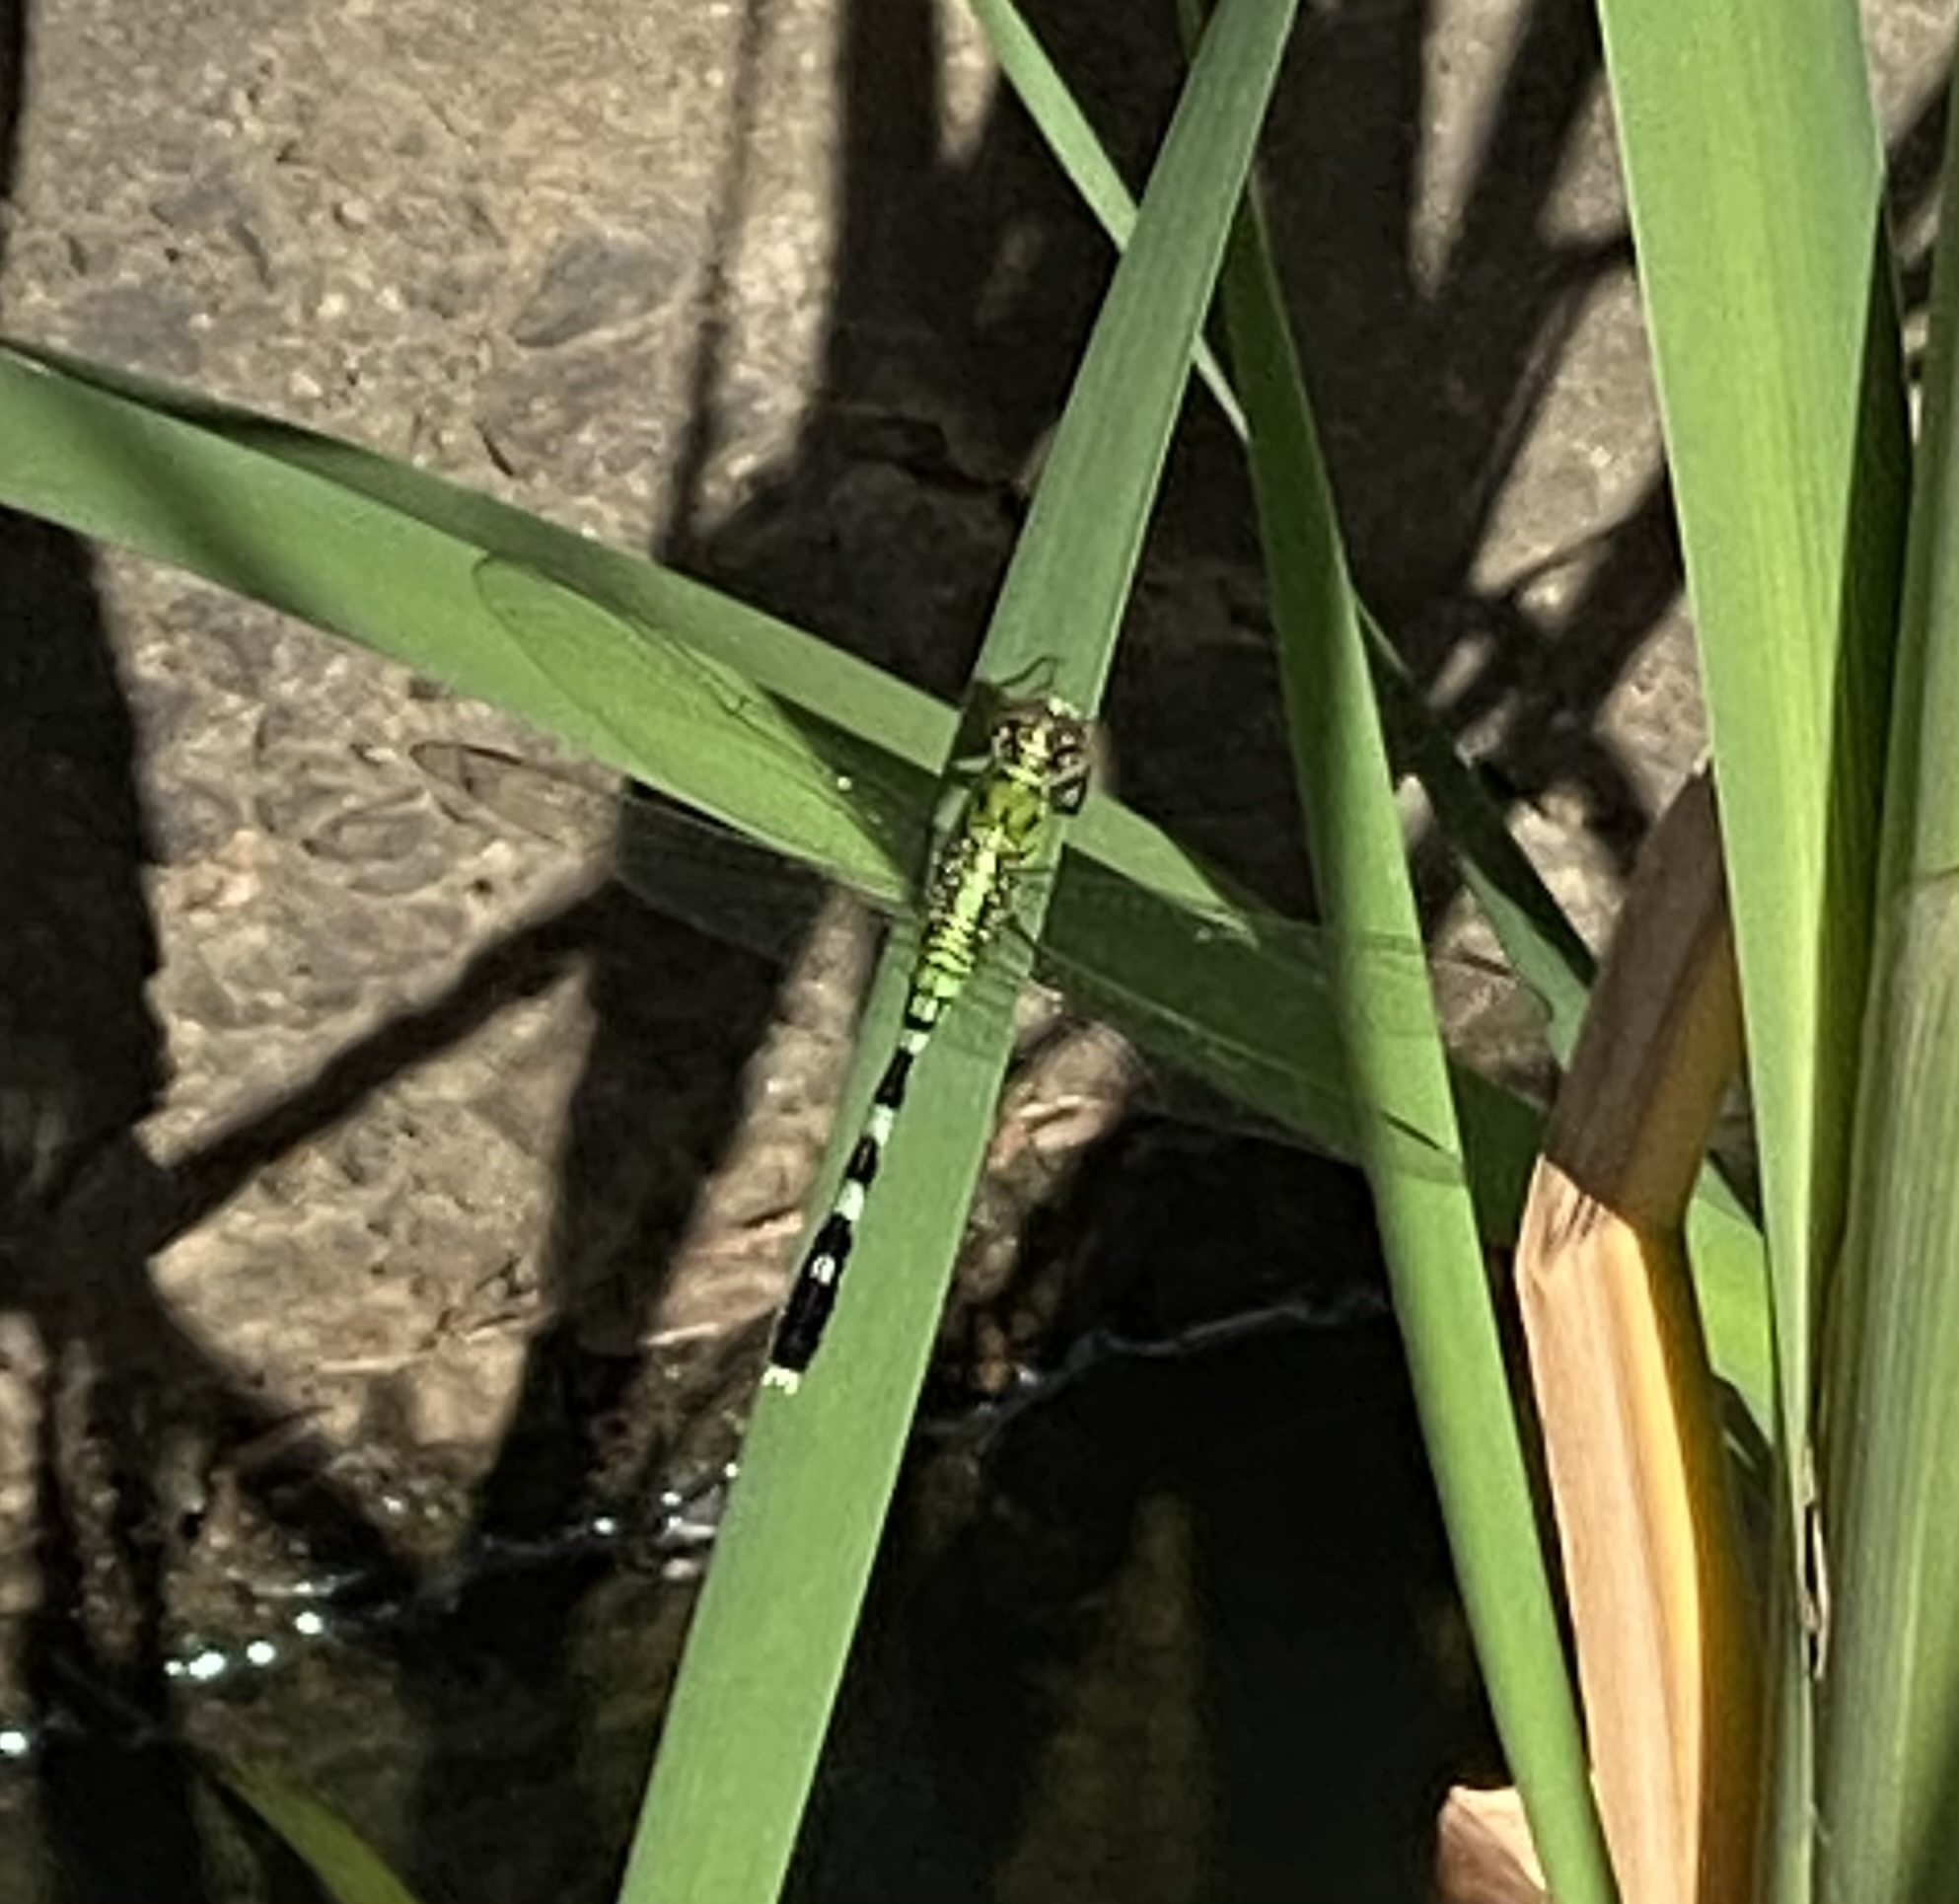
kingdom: Animalia
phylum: Arthropoda
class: Insecta
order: Odonata
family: Libellulidae
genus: Erythemis
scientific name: Erythemis simplicicollis
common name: Eastern pondhawk
